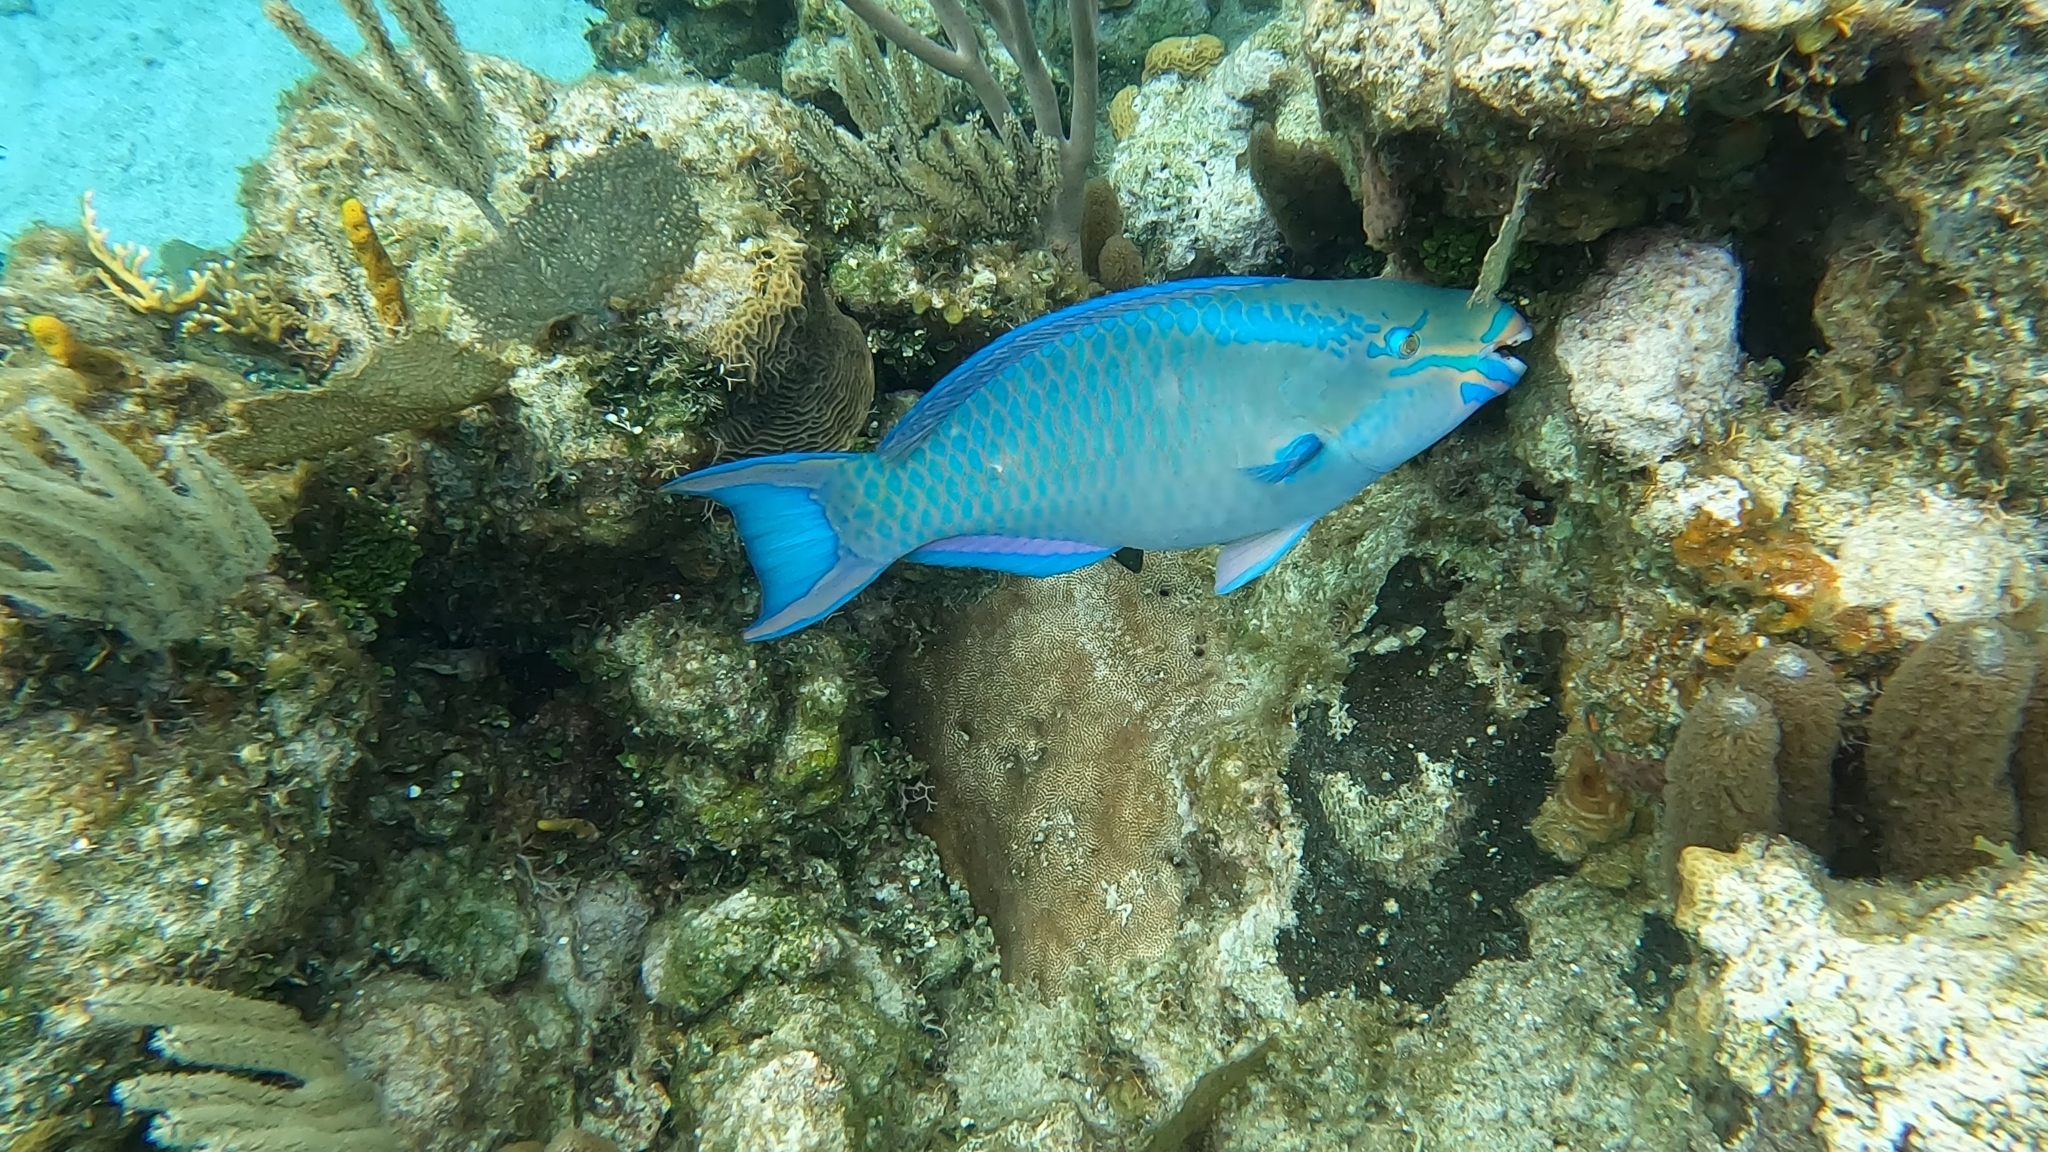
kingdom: Animalia
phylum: Chordata
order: Perciformes
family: Scaridae
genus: Scarus
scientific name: Scarus vetula
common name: Queen parrotfish
